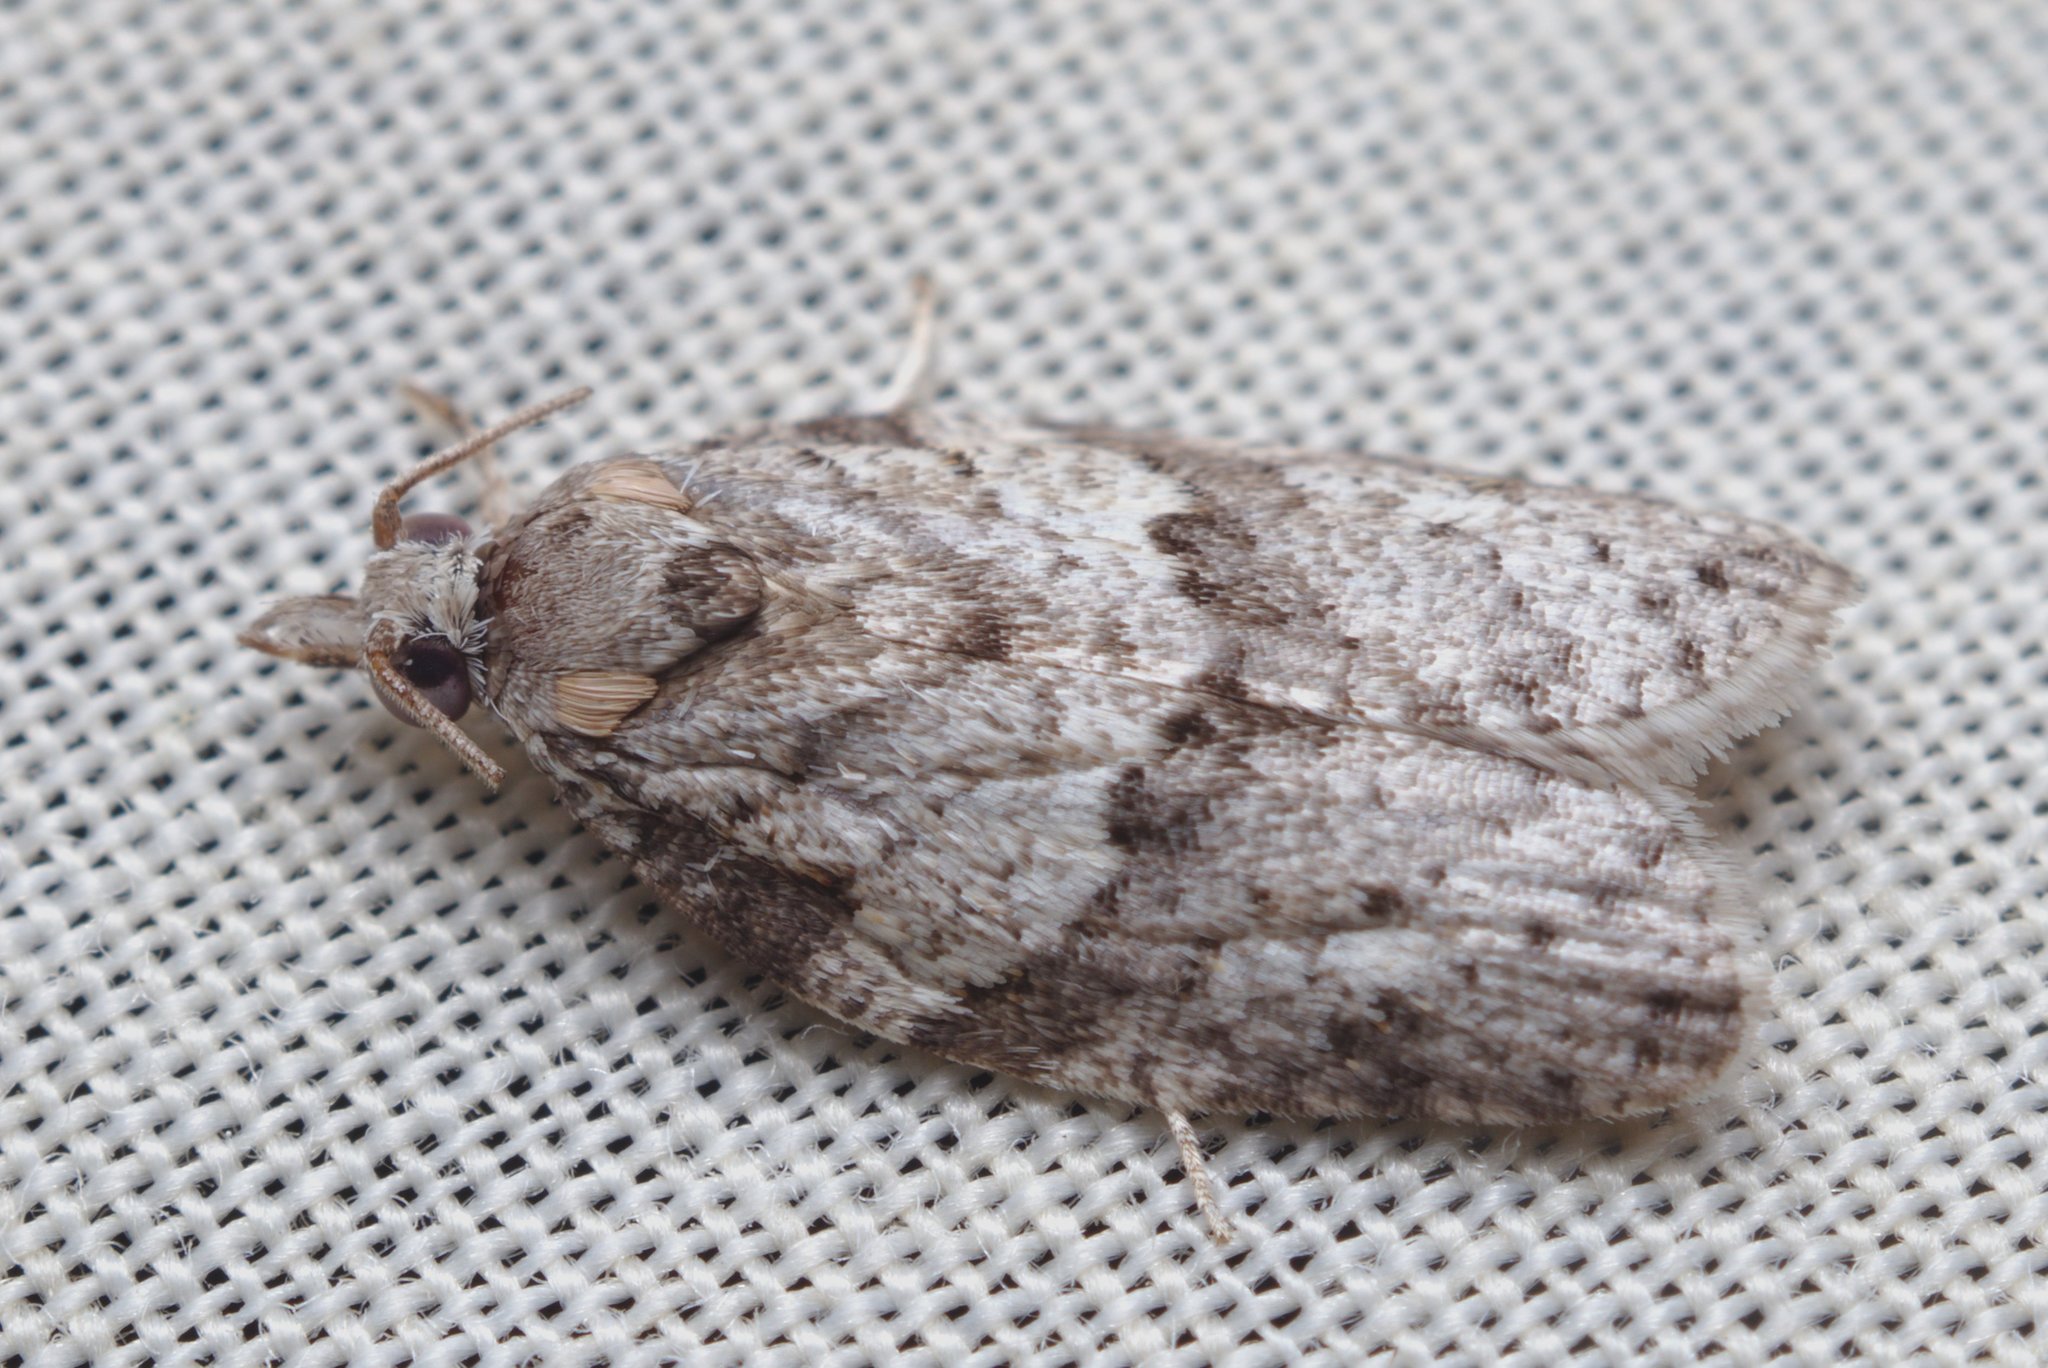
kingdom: Animalia
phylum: Arthropoda
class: Insecta
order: Lepidoptera
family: Tortricidae
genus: Isotenes
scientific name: Isotenes miserana
